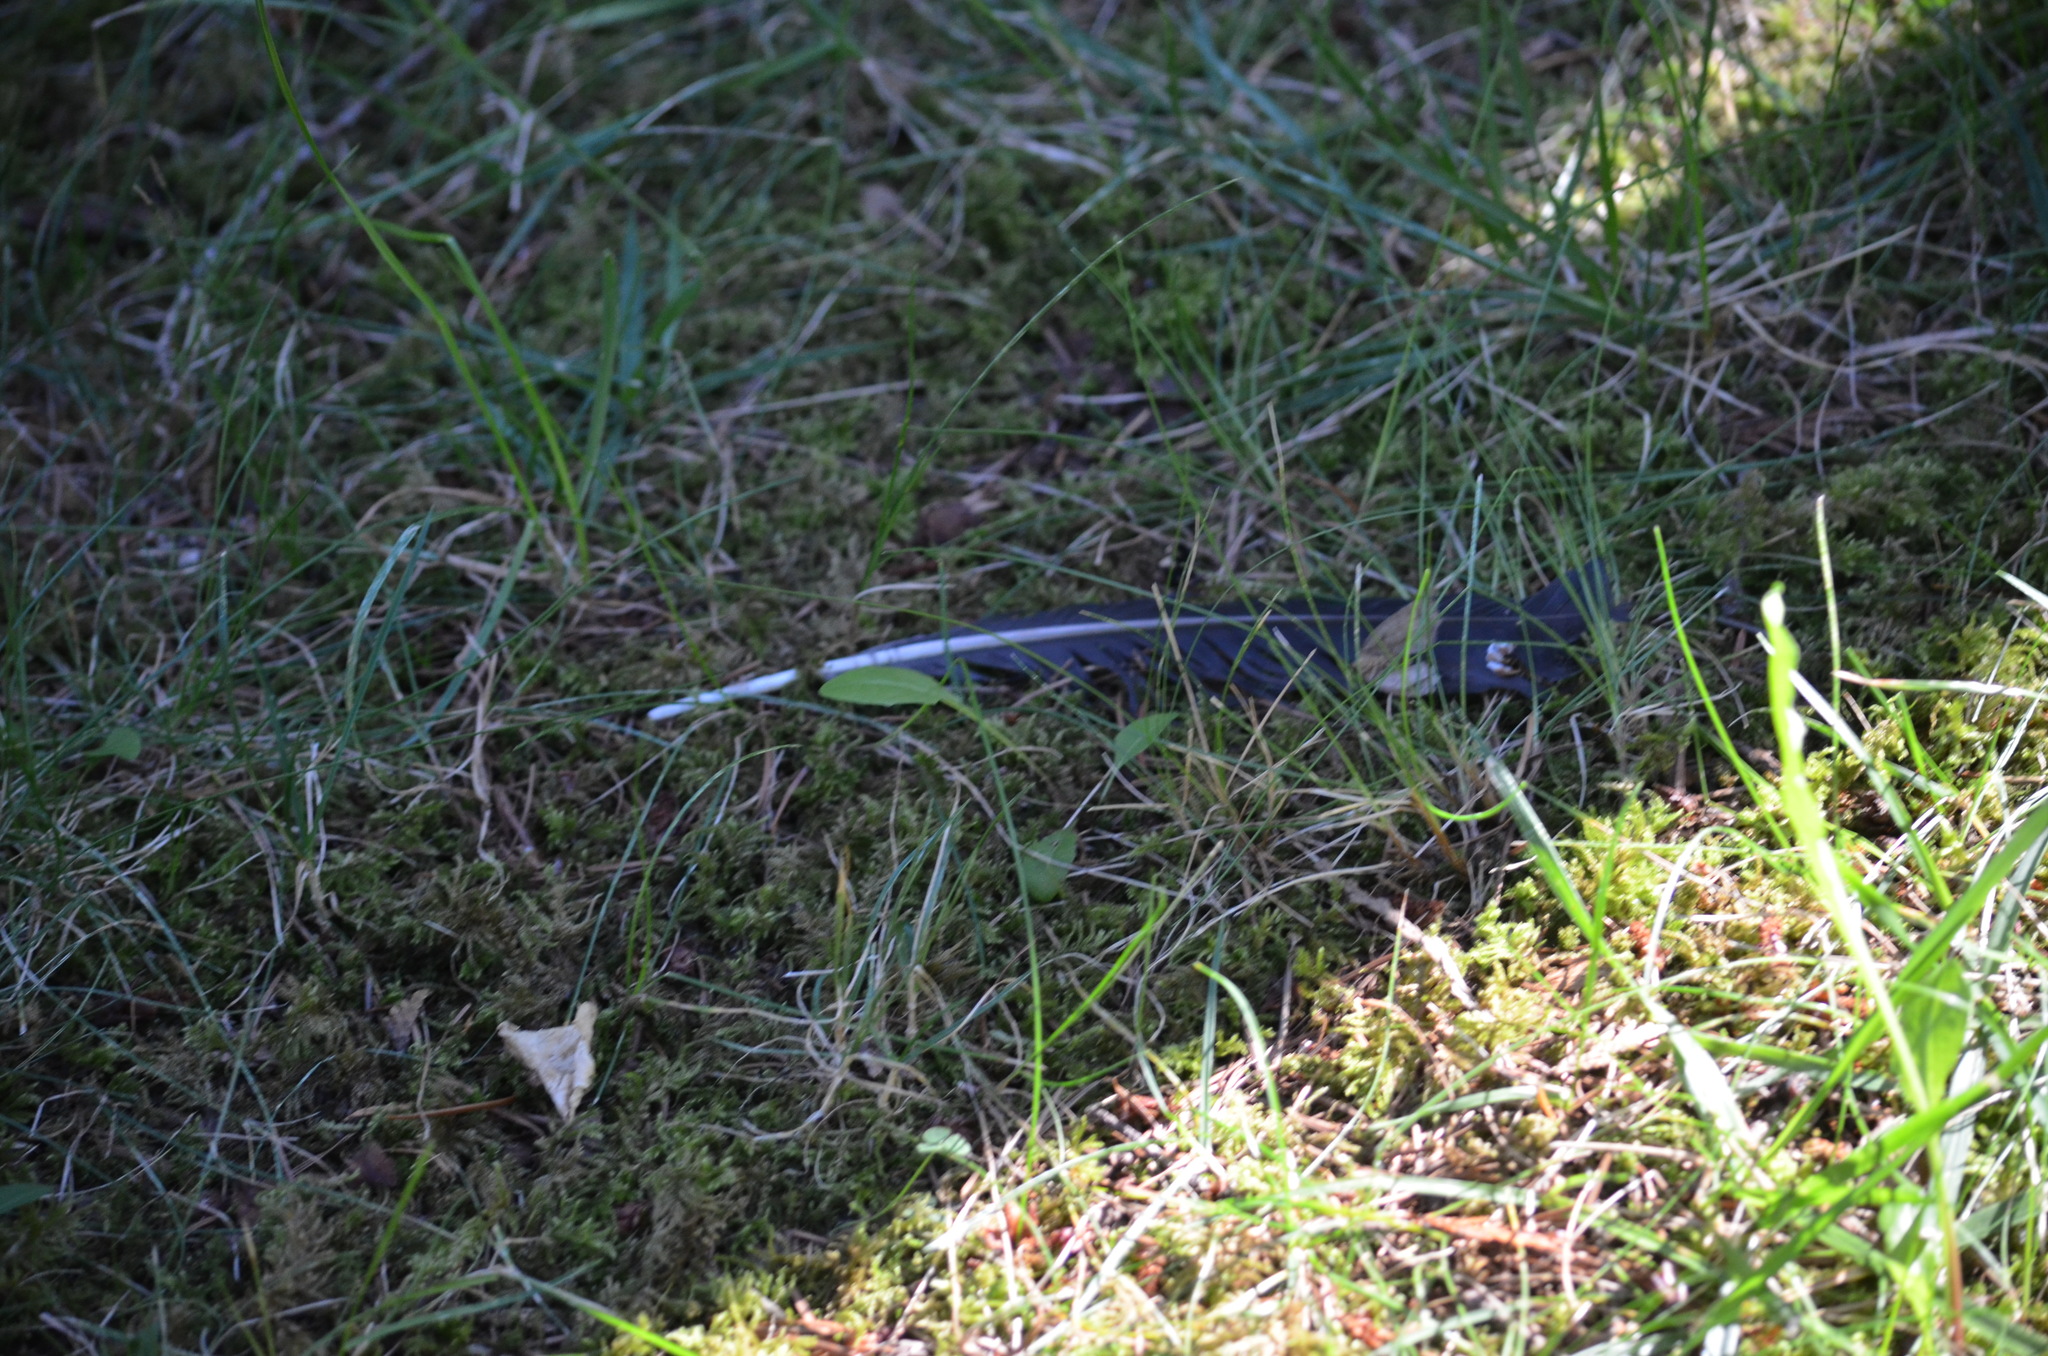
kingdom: Animalia
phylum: Chordata
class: Aves
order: Passeriformes
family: Corvidae
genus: Corvus
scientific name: Corvus brachyrhynchos
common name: American crow
